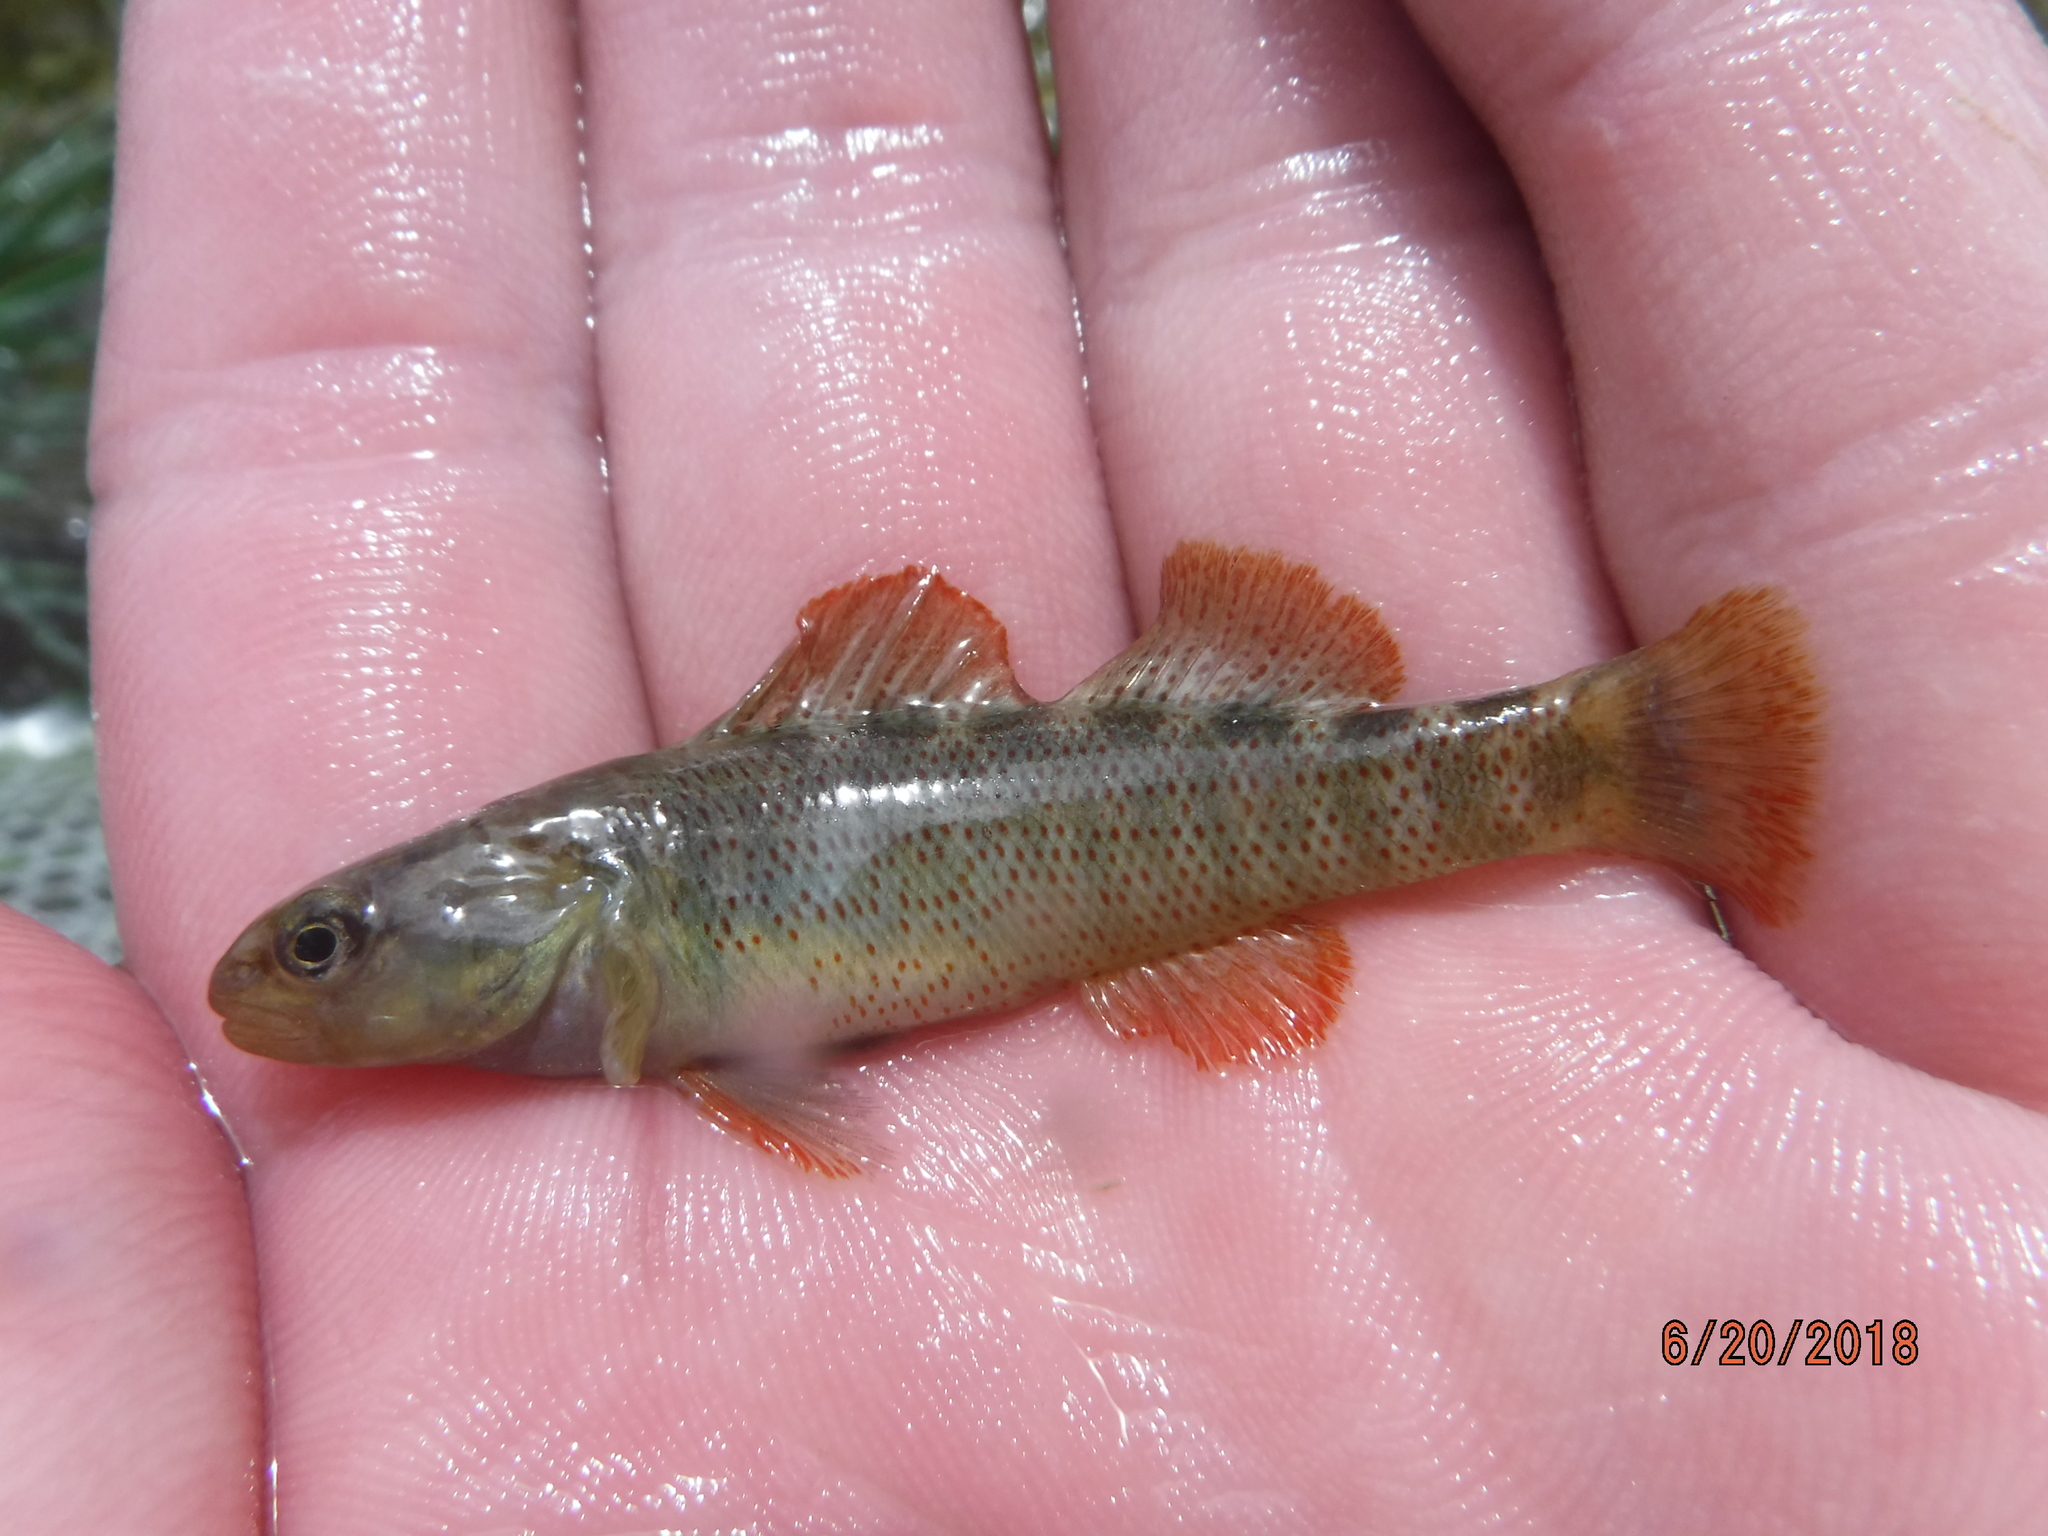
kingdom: Animalia
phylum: Chordata
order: Perciformes
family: Percidae
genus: Etheostoma
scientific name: Etheostoma grahami
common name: Rio grande darter
